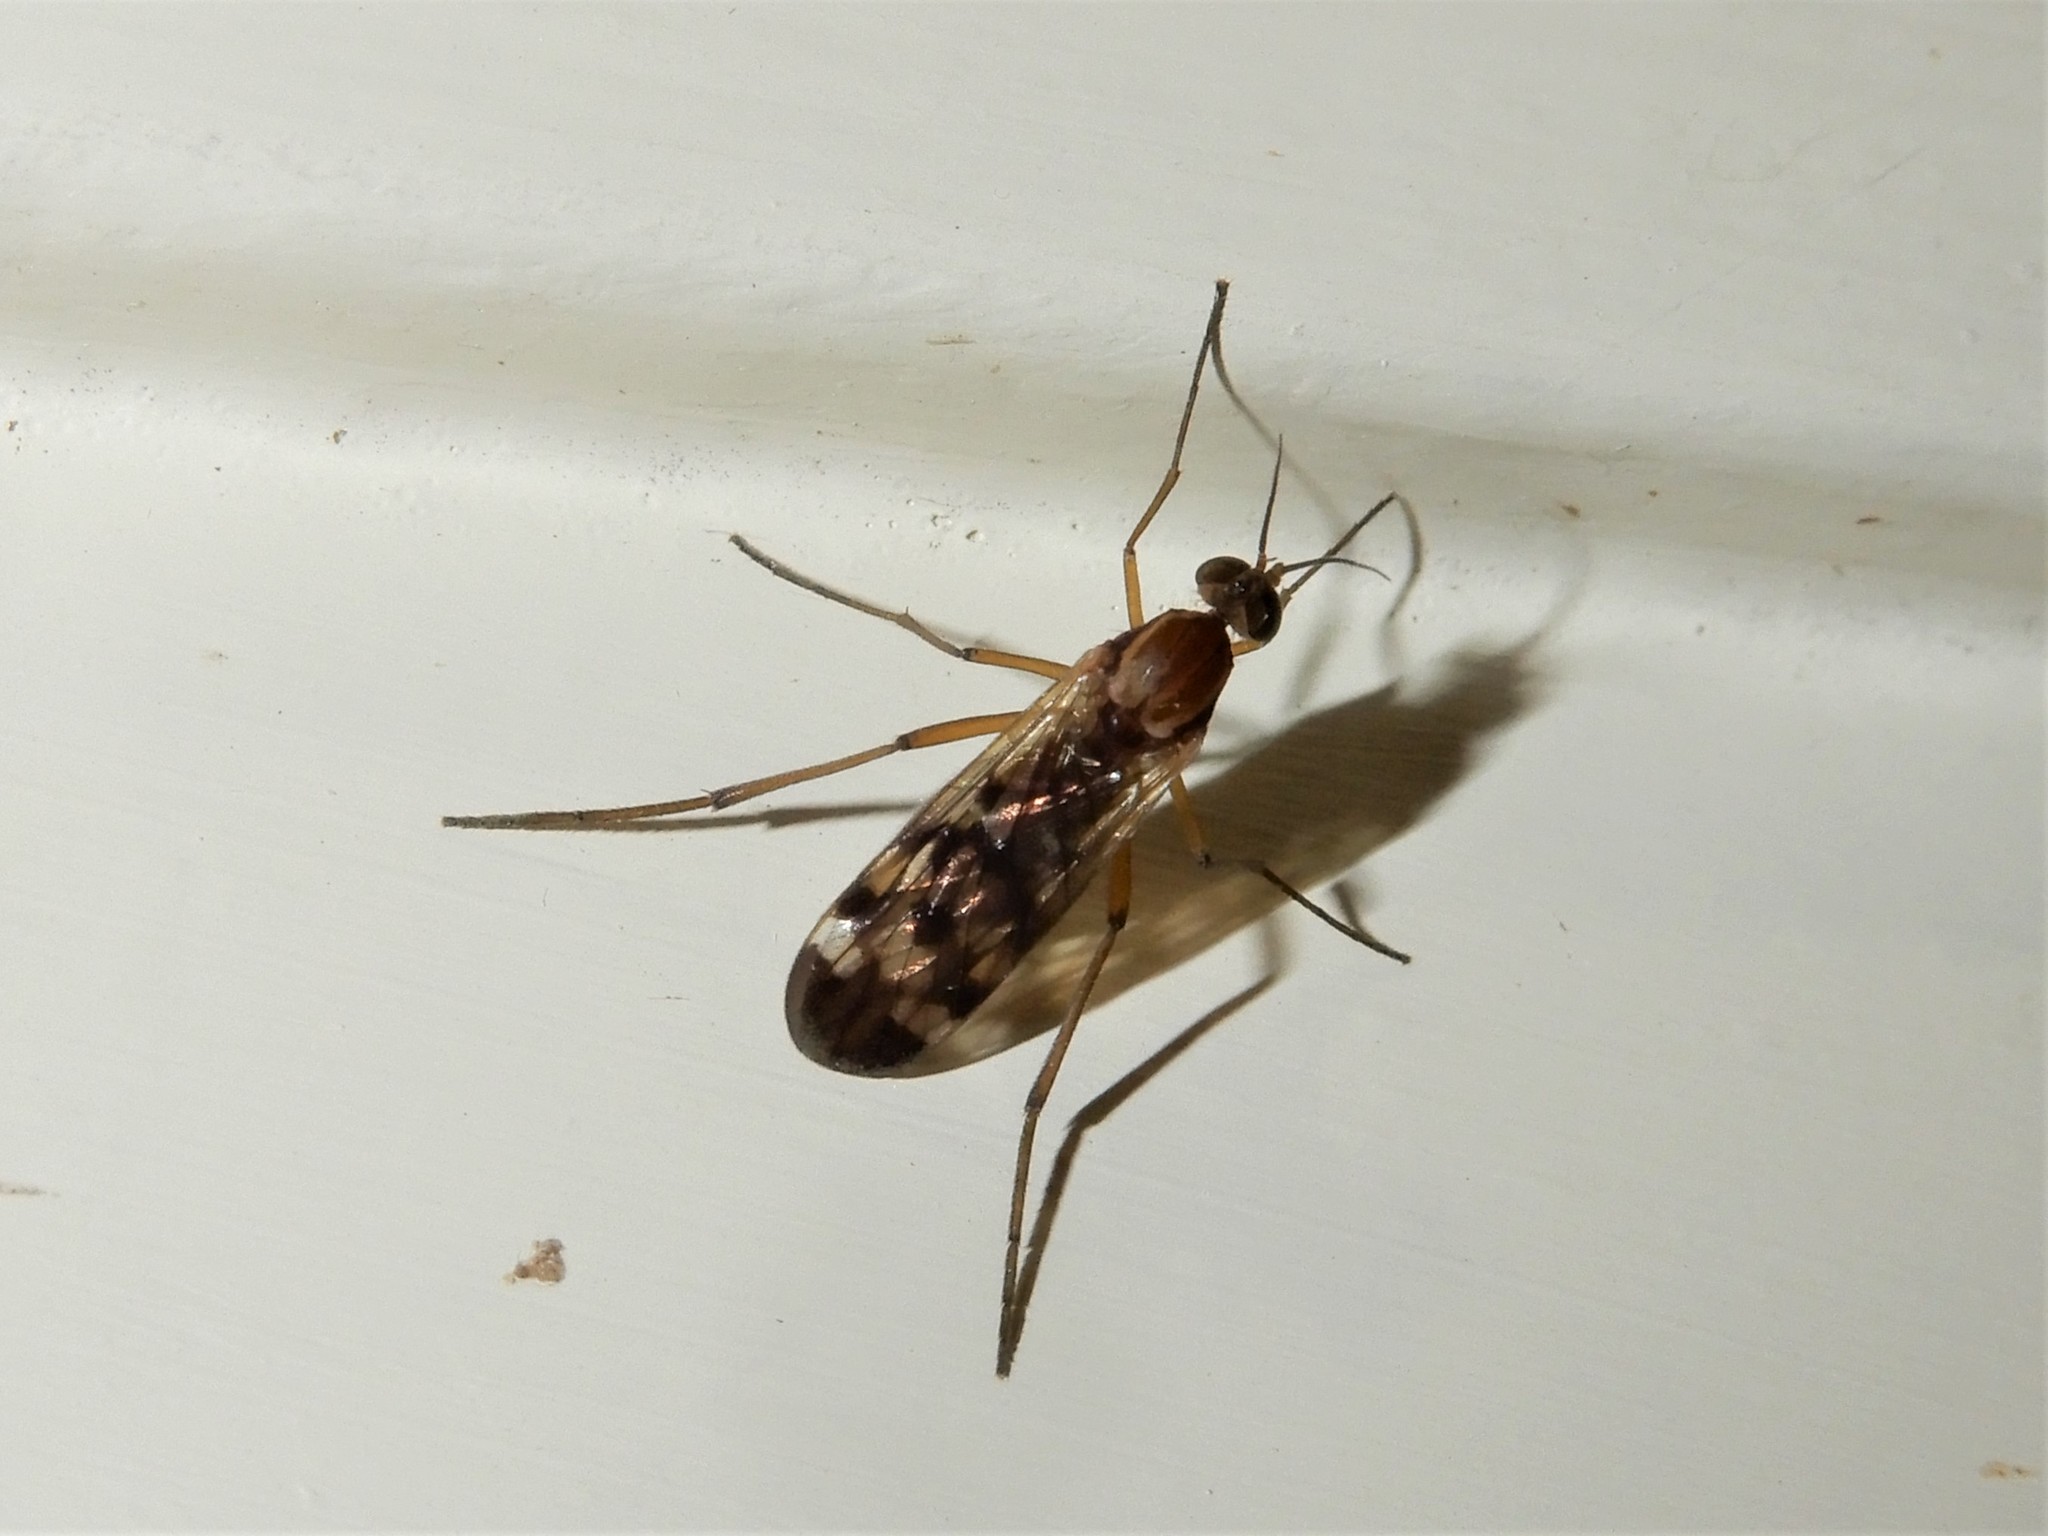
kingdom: Animalia
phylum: Arthropoda
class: Insecta
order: Diptera
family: Anisopodidae
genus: Sylvicola
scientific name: Sylvicola notatus
